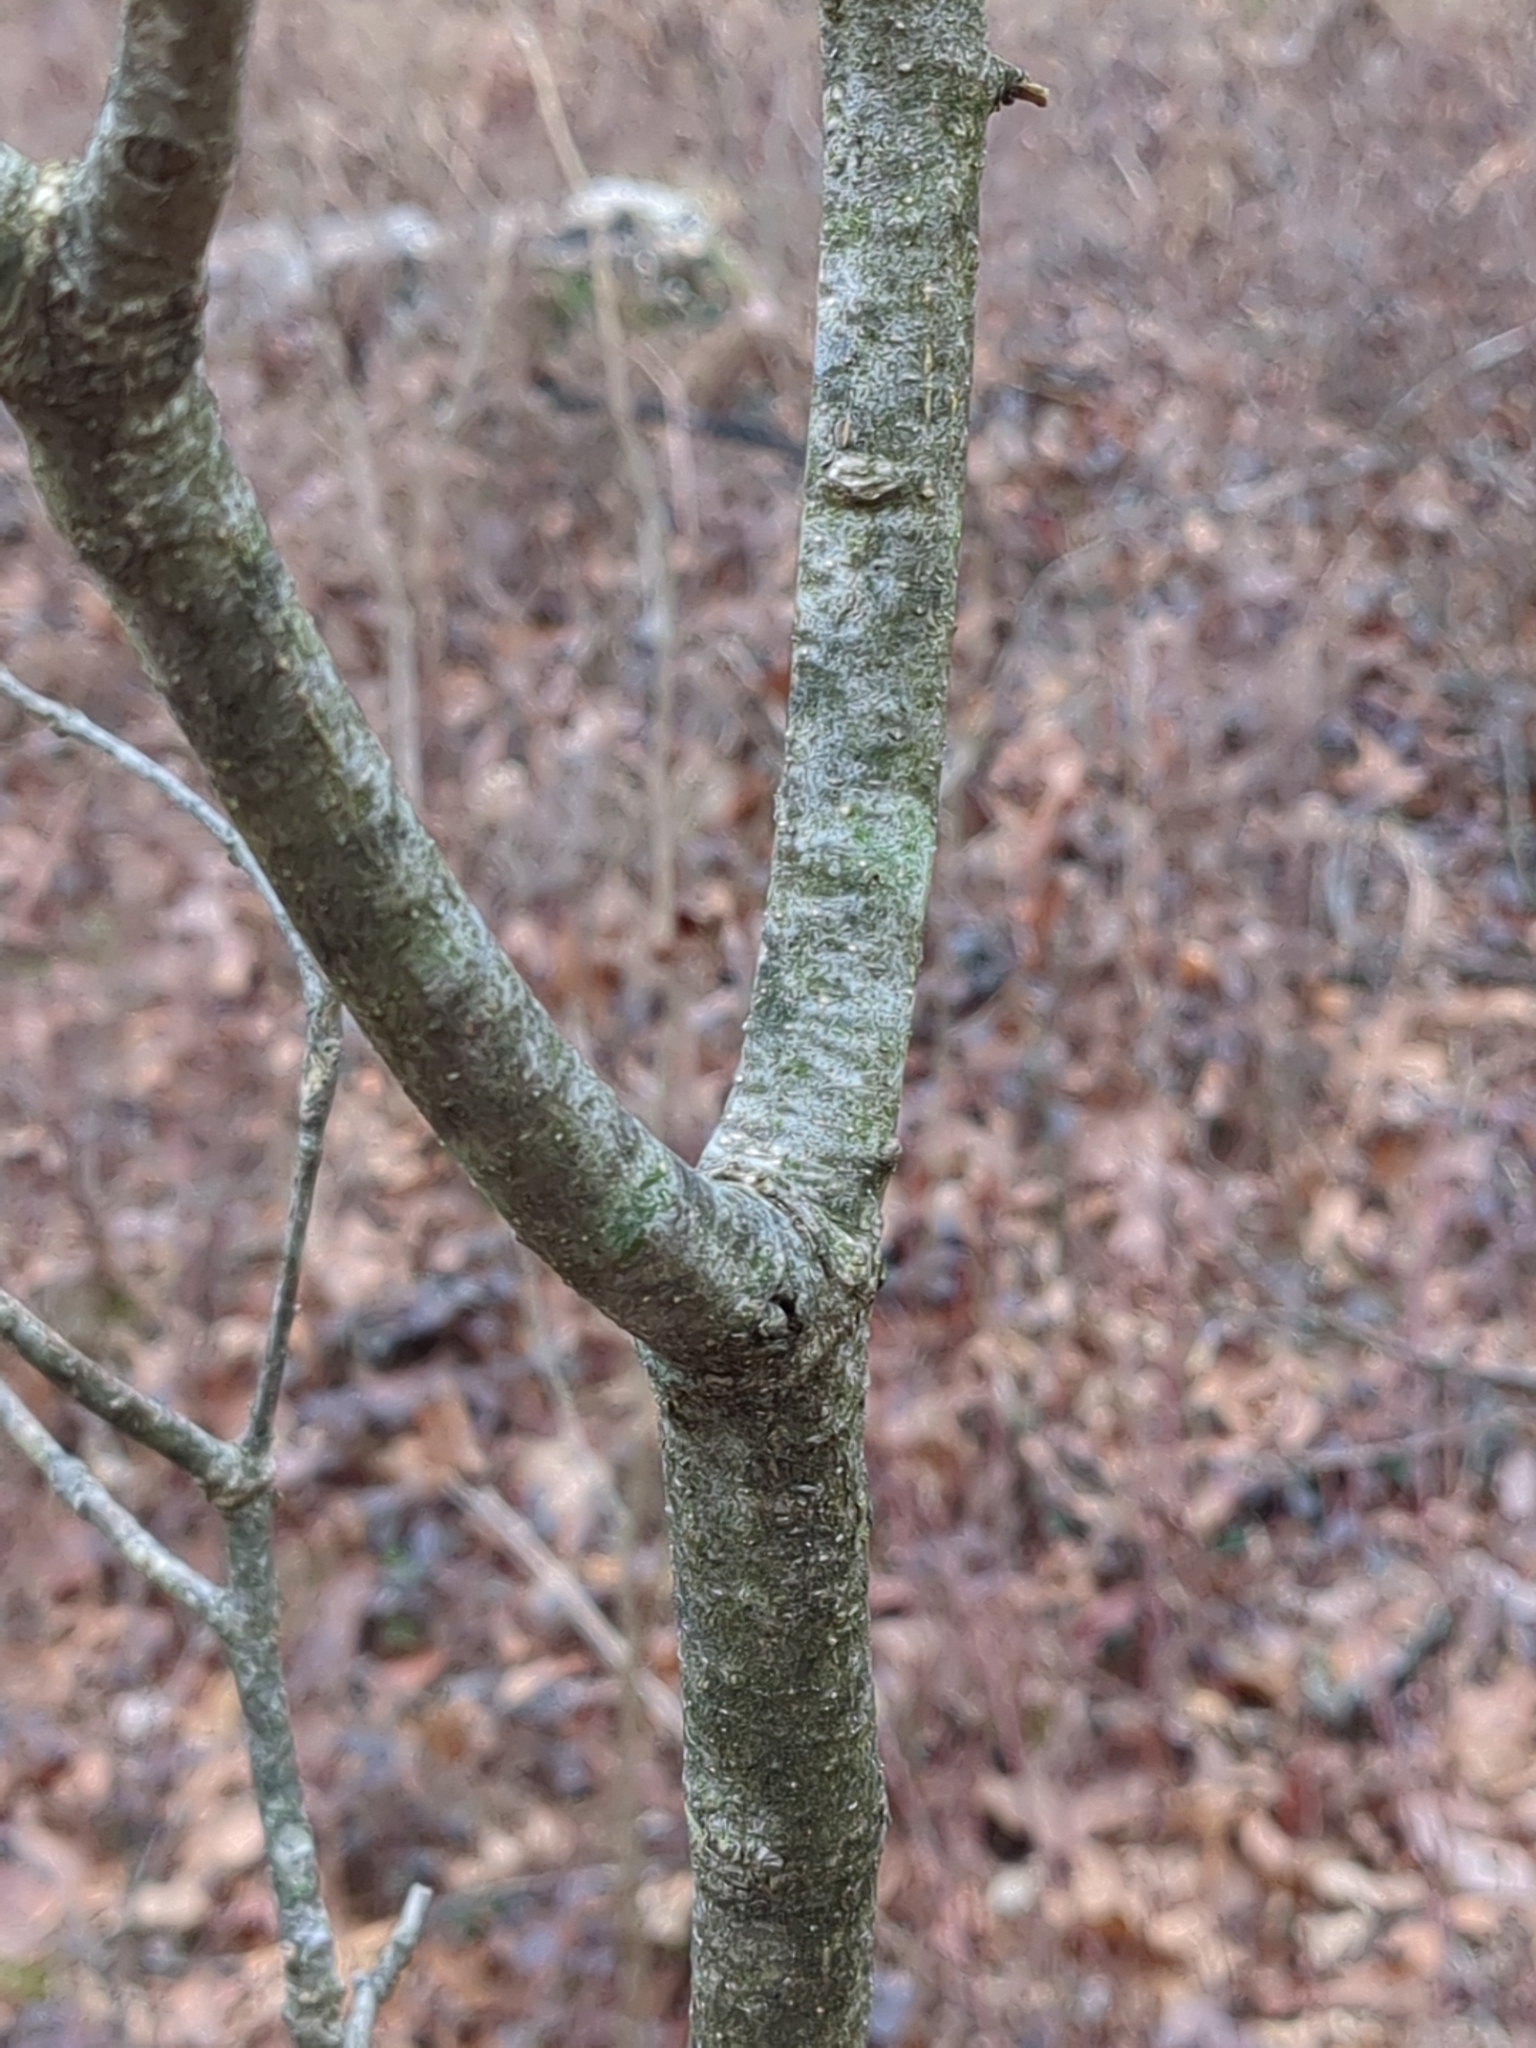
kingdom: Plantae
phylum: Tracheophyta
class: Magnoliopsida
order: Fagales
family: Fagaceae
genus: Quercus
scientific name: Quercus montana
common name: Chestnut oak
